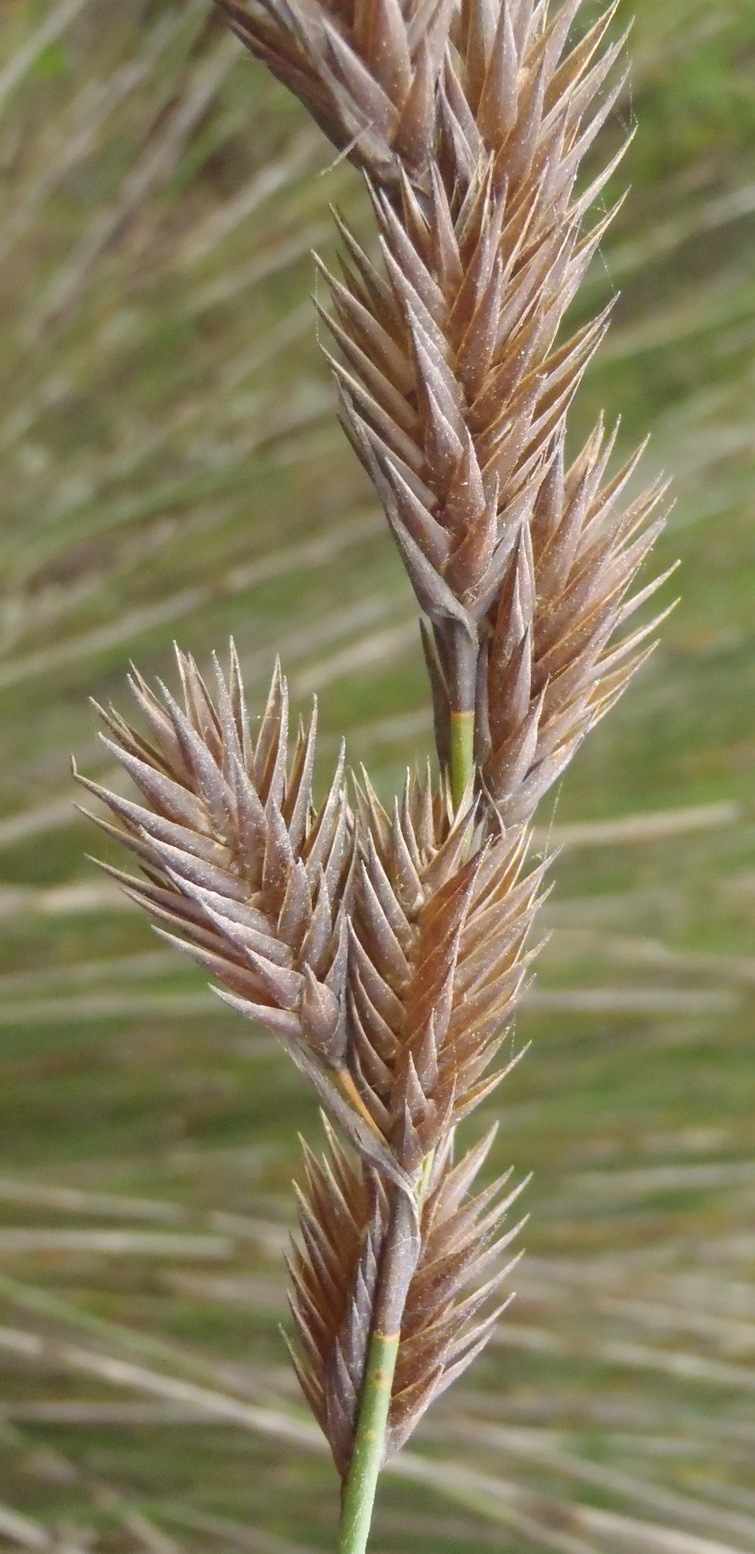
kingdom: Plantae
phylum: Tracheophyta
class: Liliopsida
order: Poales
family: Restionaceae
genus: Thamnochortus
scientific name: Thamnochortus insignis
